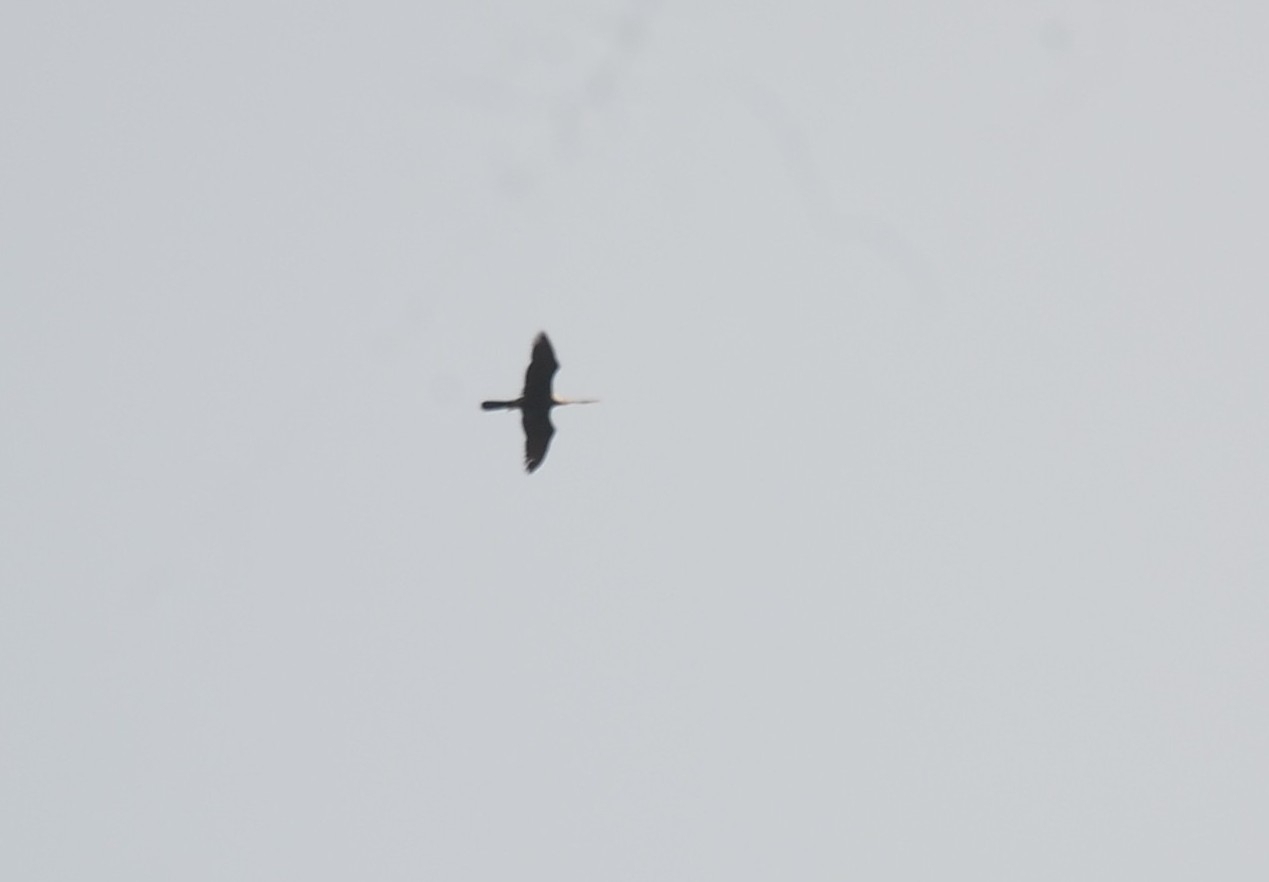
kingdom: Animalia
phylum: Chordata
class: Aves
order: Suliformes
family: Anhingidae
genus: Anhinga
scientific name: Anhinga melanogaster
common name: Oriental darter
